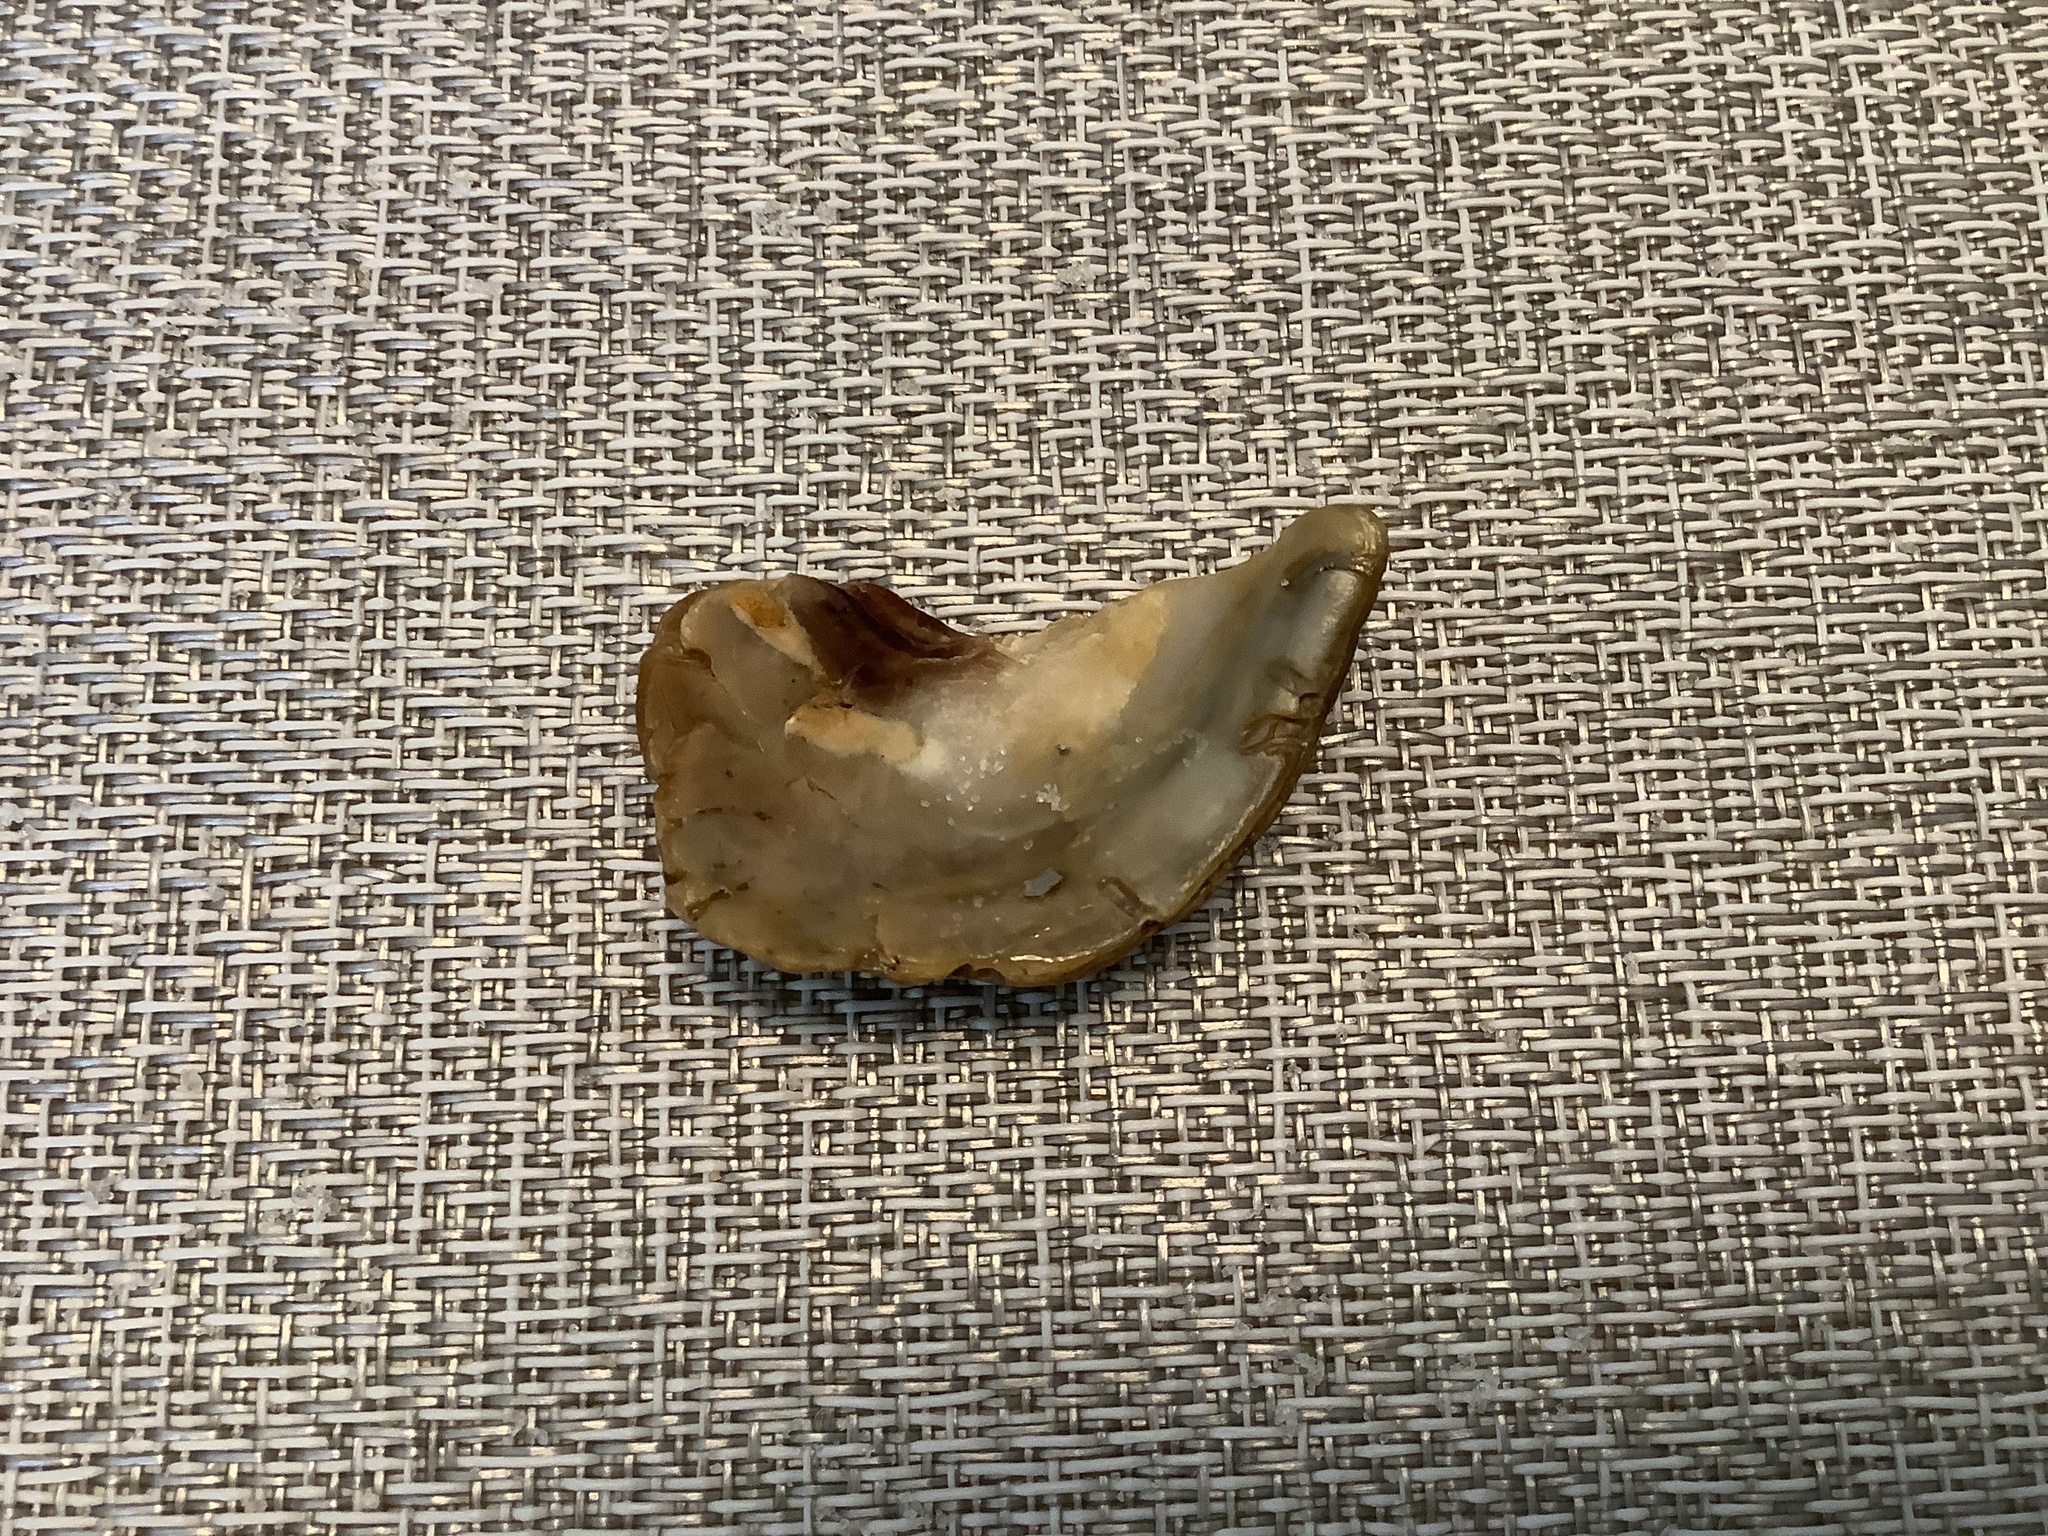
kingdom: Animalia
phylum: Mollusca
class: Bivalvia
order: Ostreida
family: Ostreidae
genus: Crassostrea
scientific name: Crassostrea virginica
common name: American oyster
